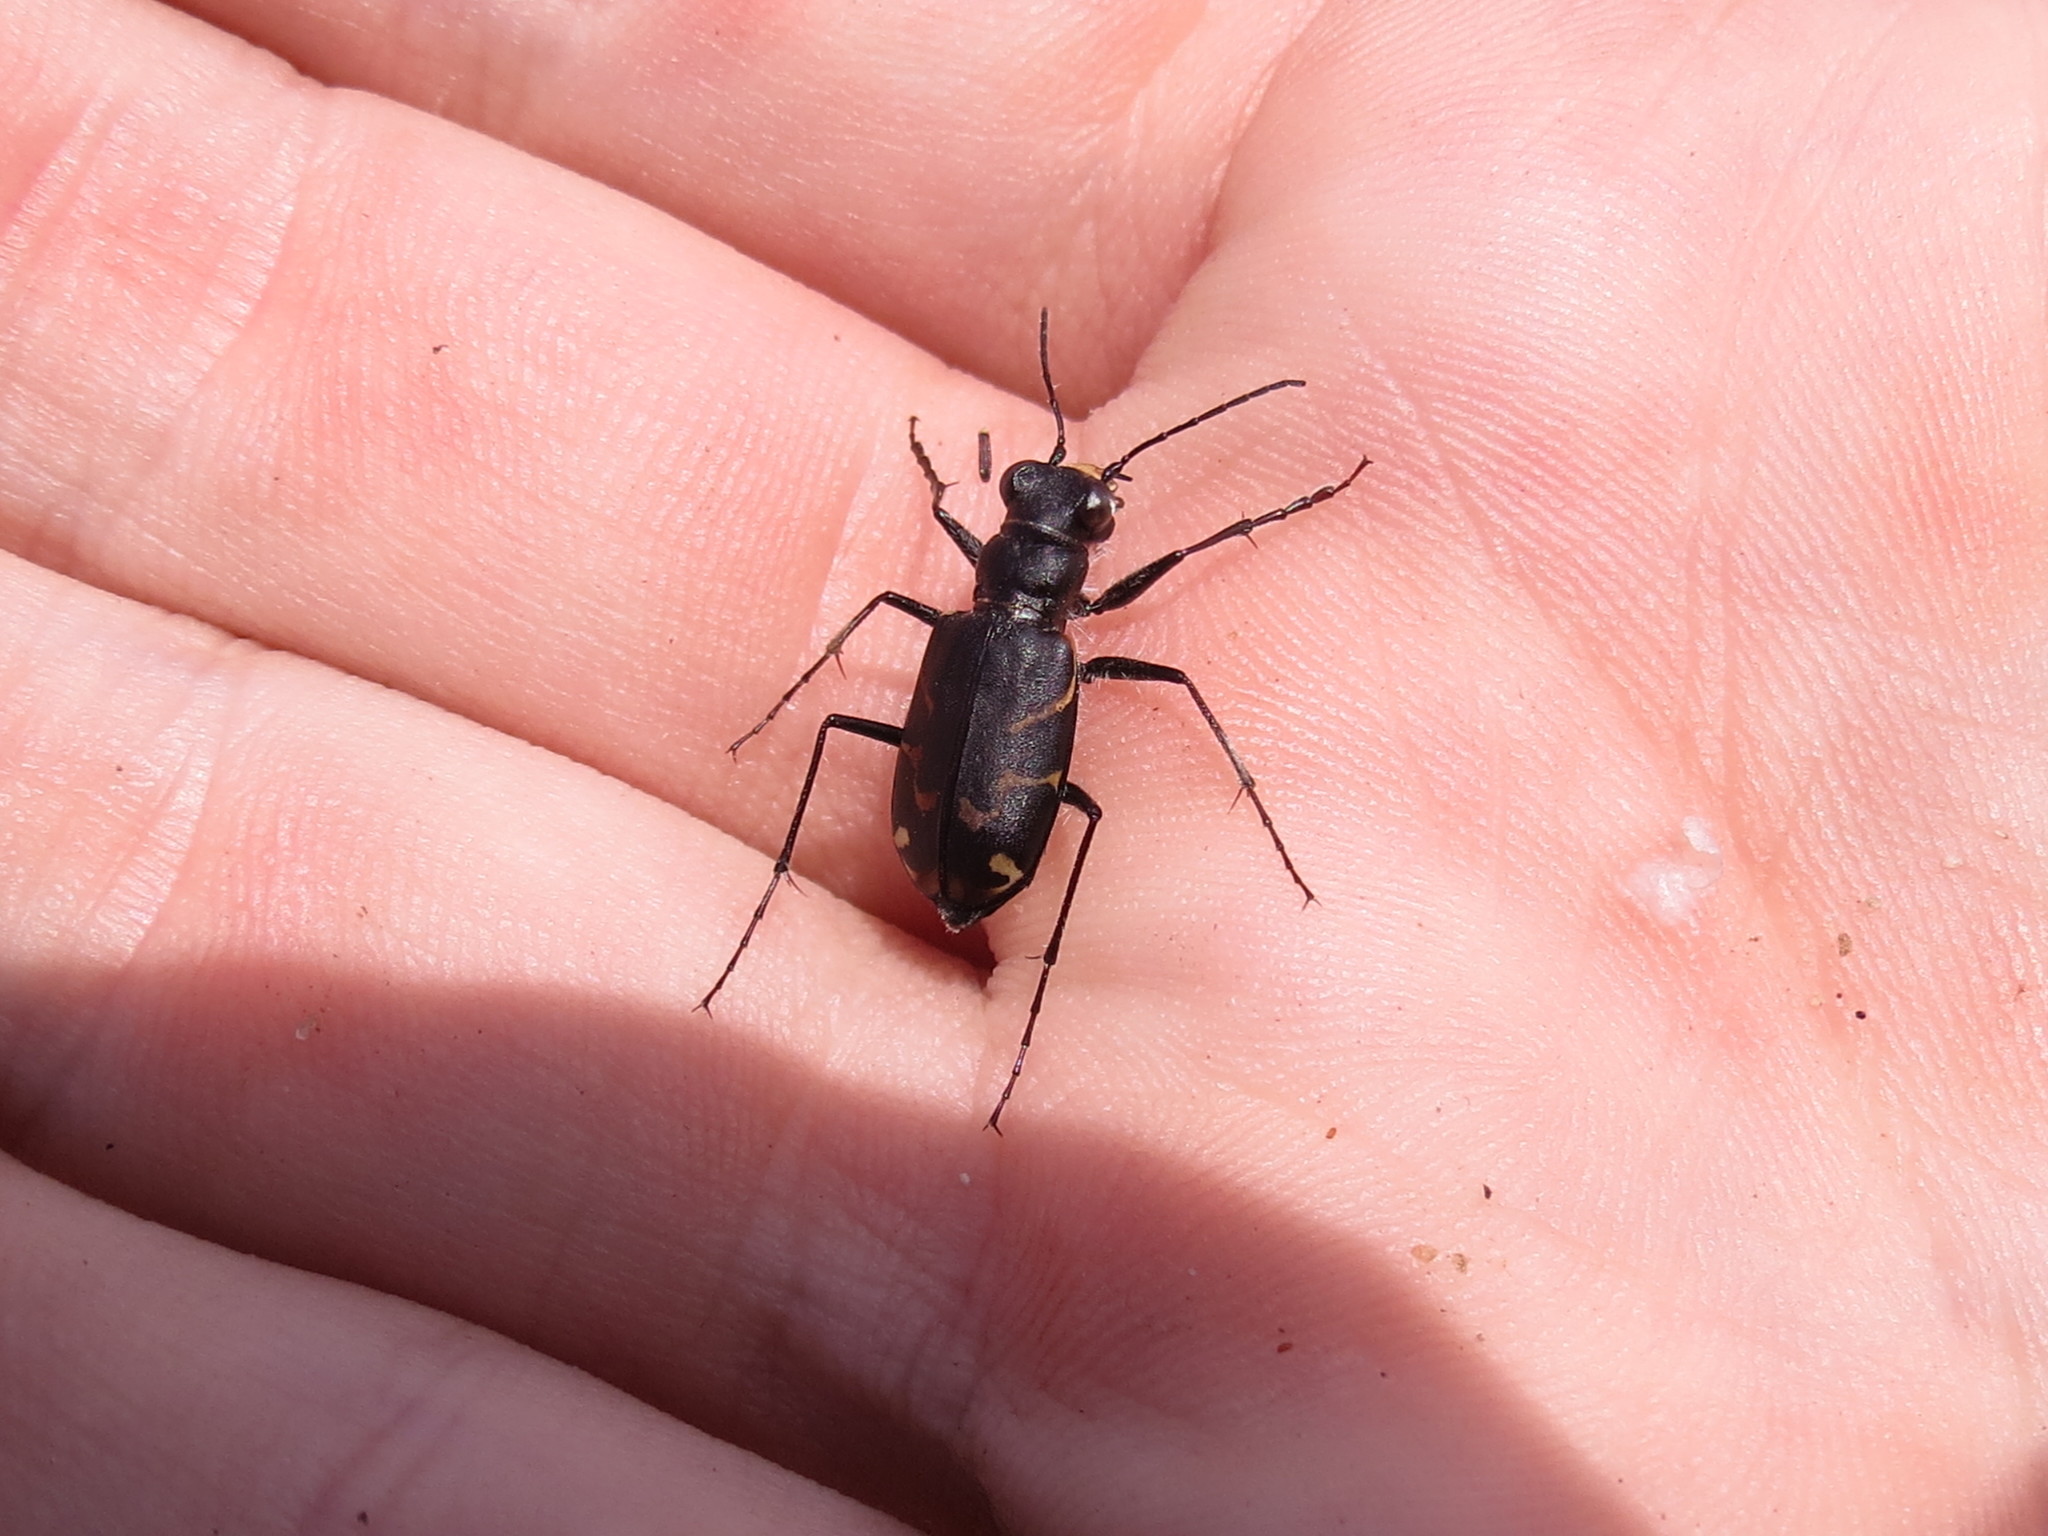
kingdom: Animalia
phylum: Arthropoda
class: Insecta
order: Coleoptera
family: Carabidae
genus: Cicindela
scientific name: Cicindela tranquebarica
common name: Oblique-lined tiger beetle
